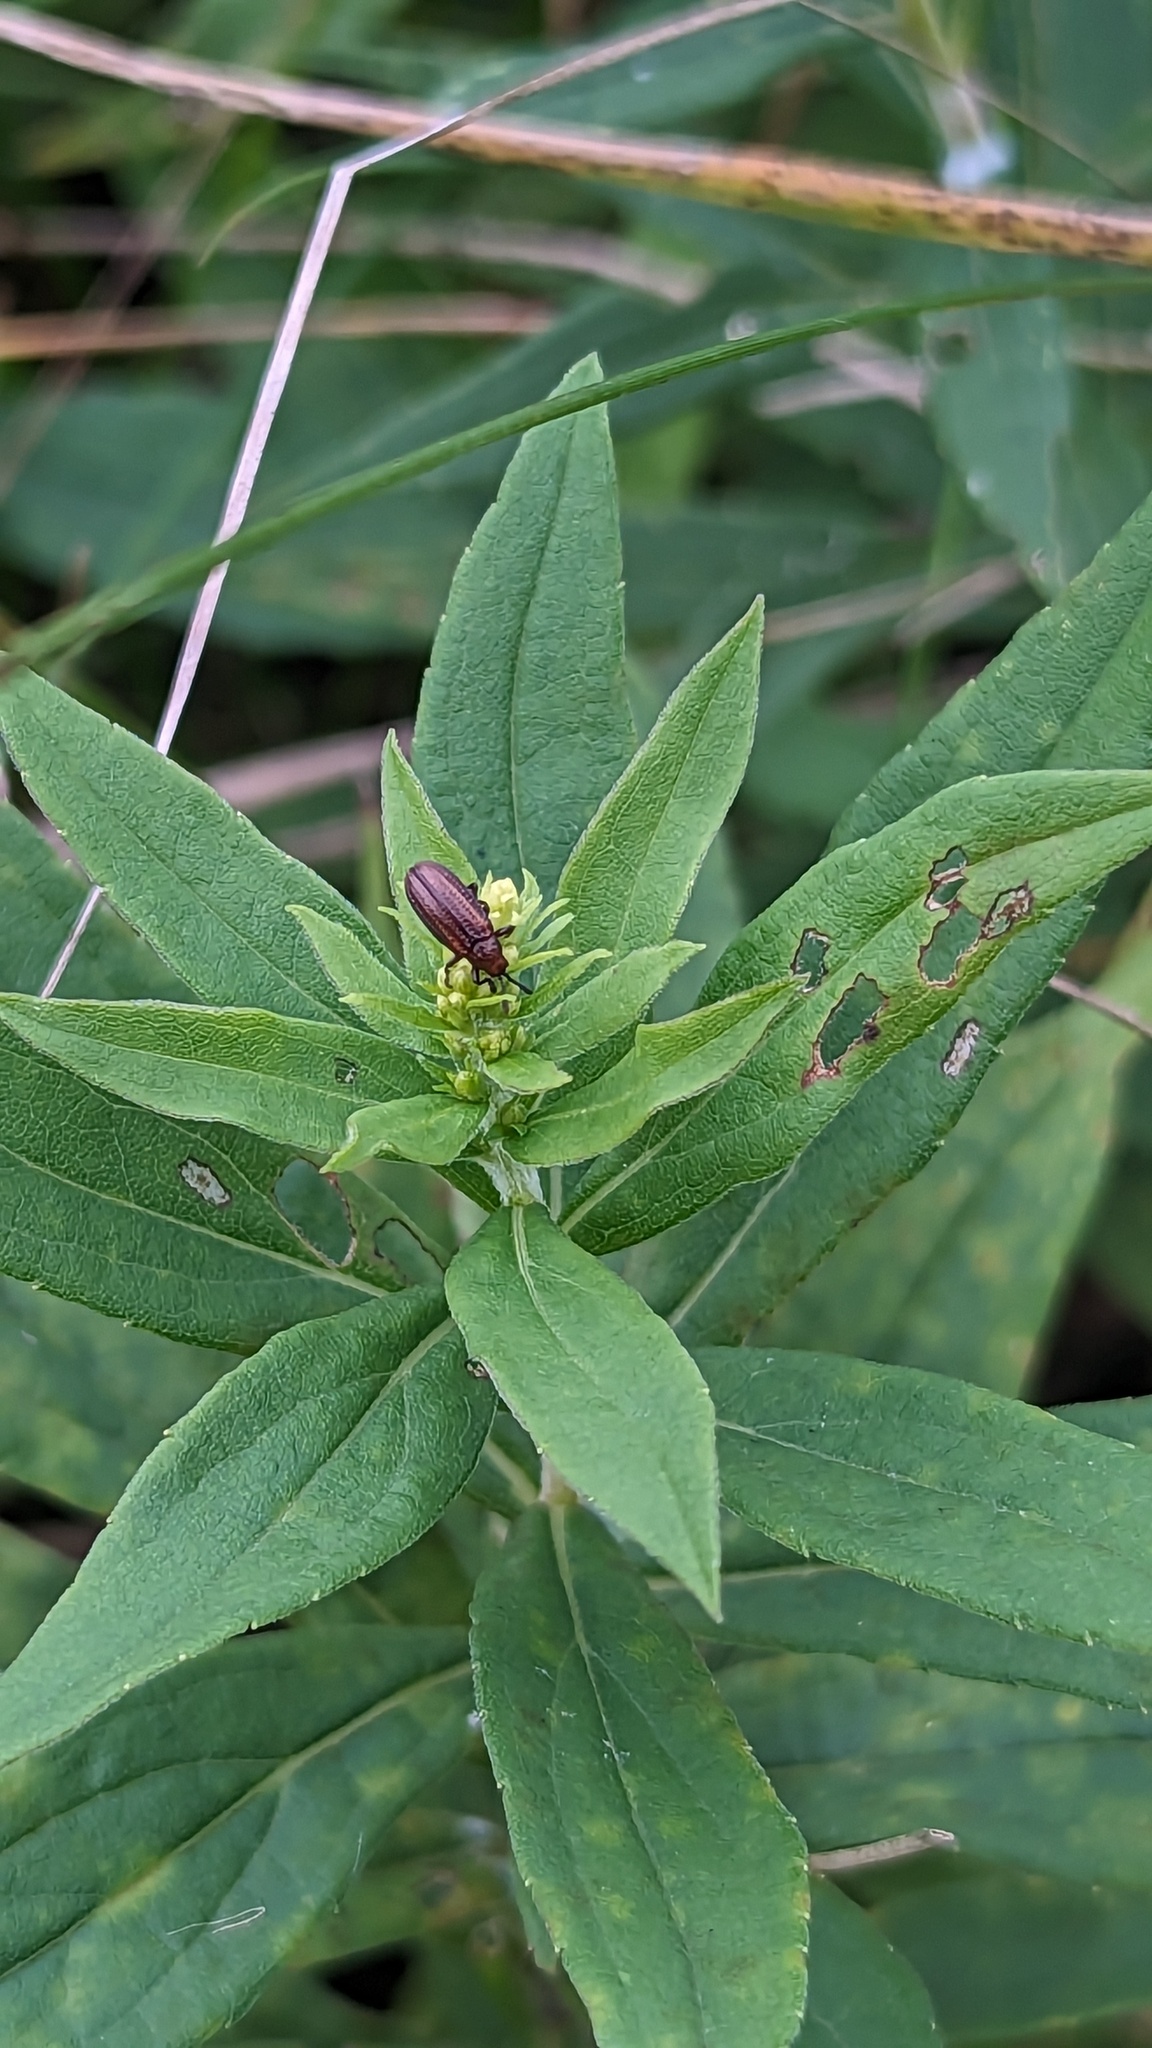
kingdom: Animalia
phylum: Arthropoda
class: Insecta
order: Coleoptera
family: Chrysomelidae
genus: Microrhopala
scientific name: Microrhopala vittata
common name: Goldenrod leaf miner beetle
